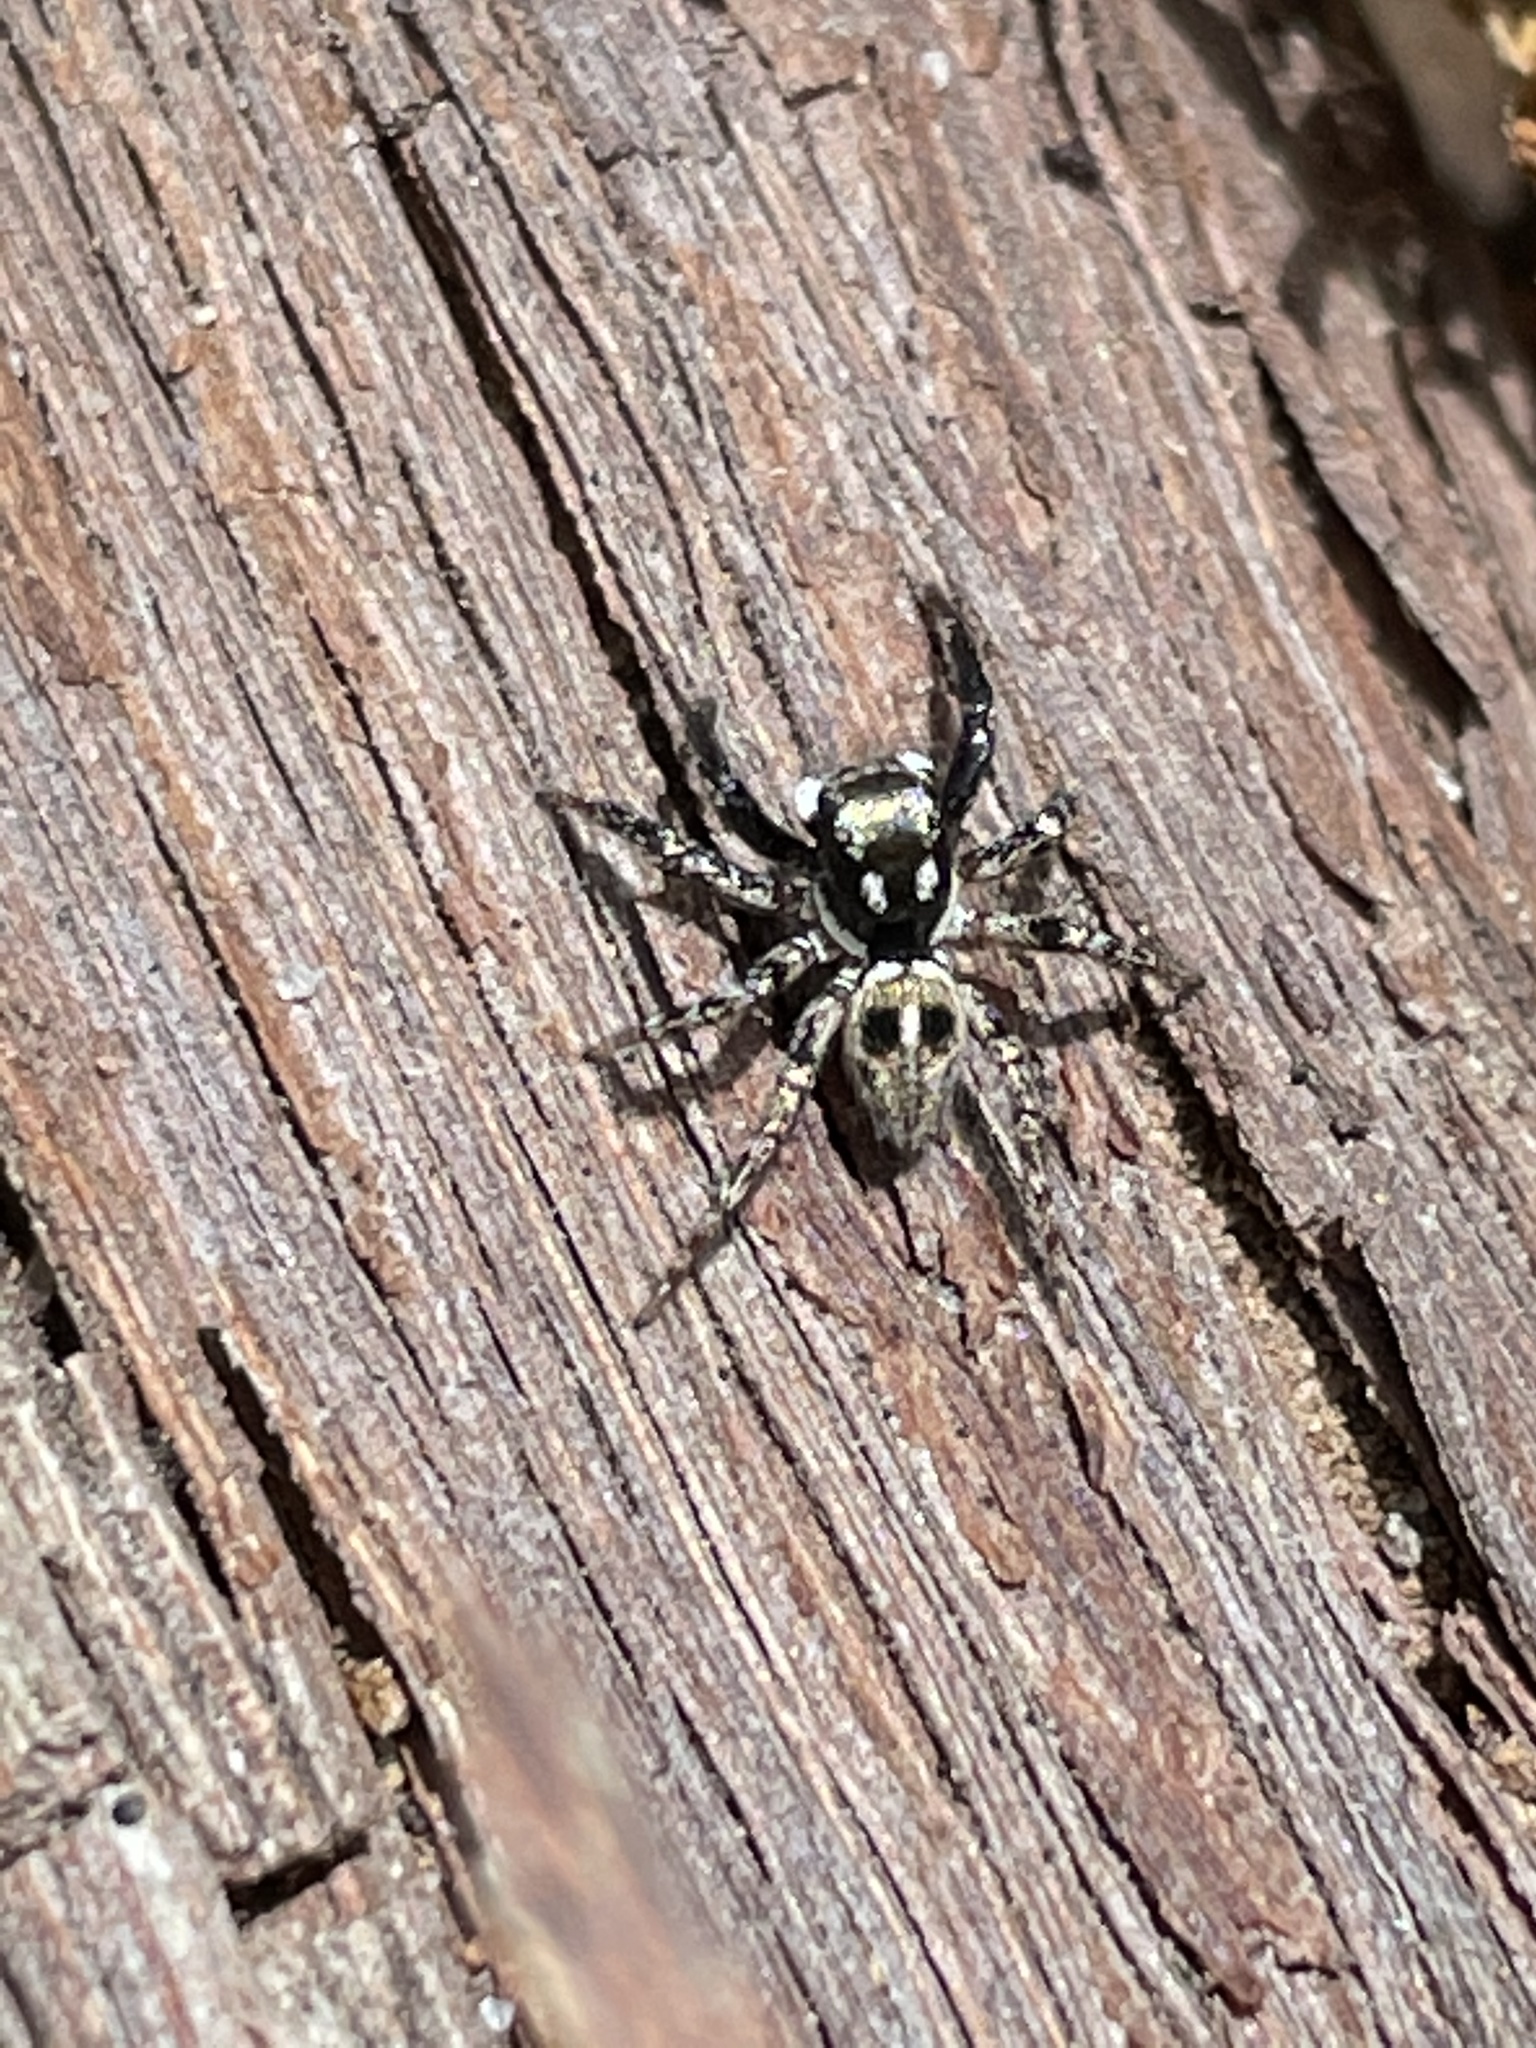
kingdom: Animalia
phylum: Arthropoda
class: Arachnida
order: Araneae
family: Salticidae
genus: Anasaitis
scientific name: Anasaitis canosa
